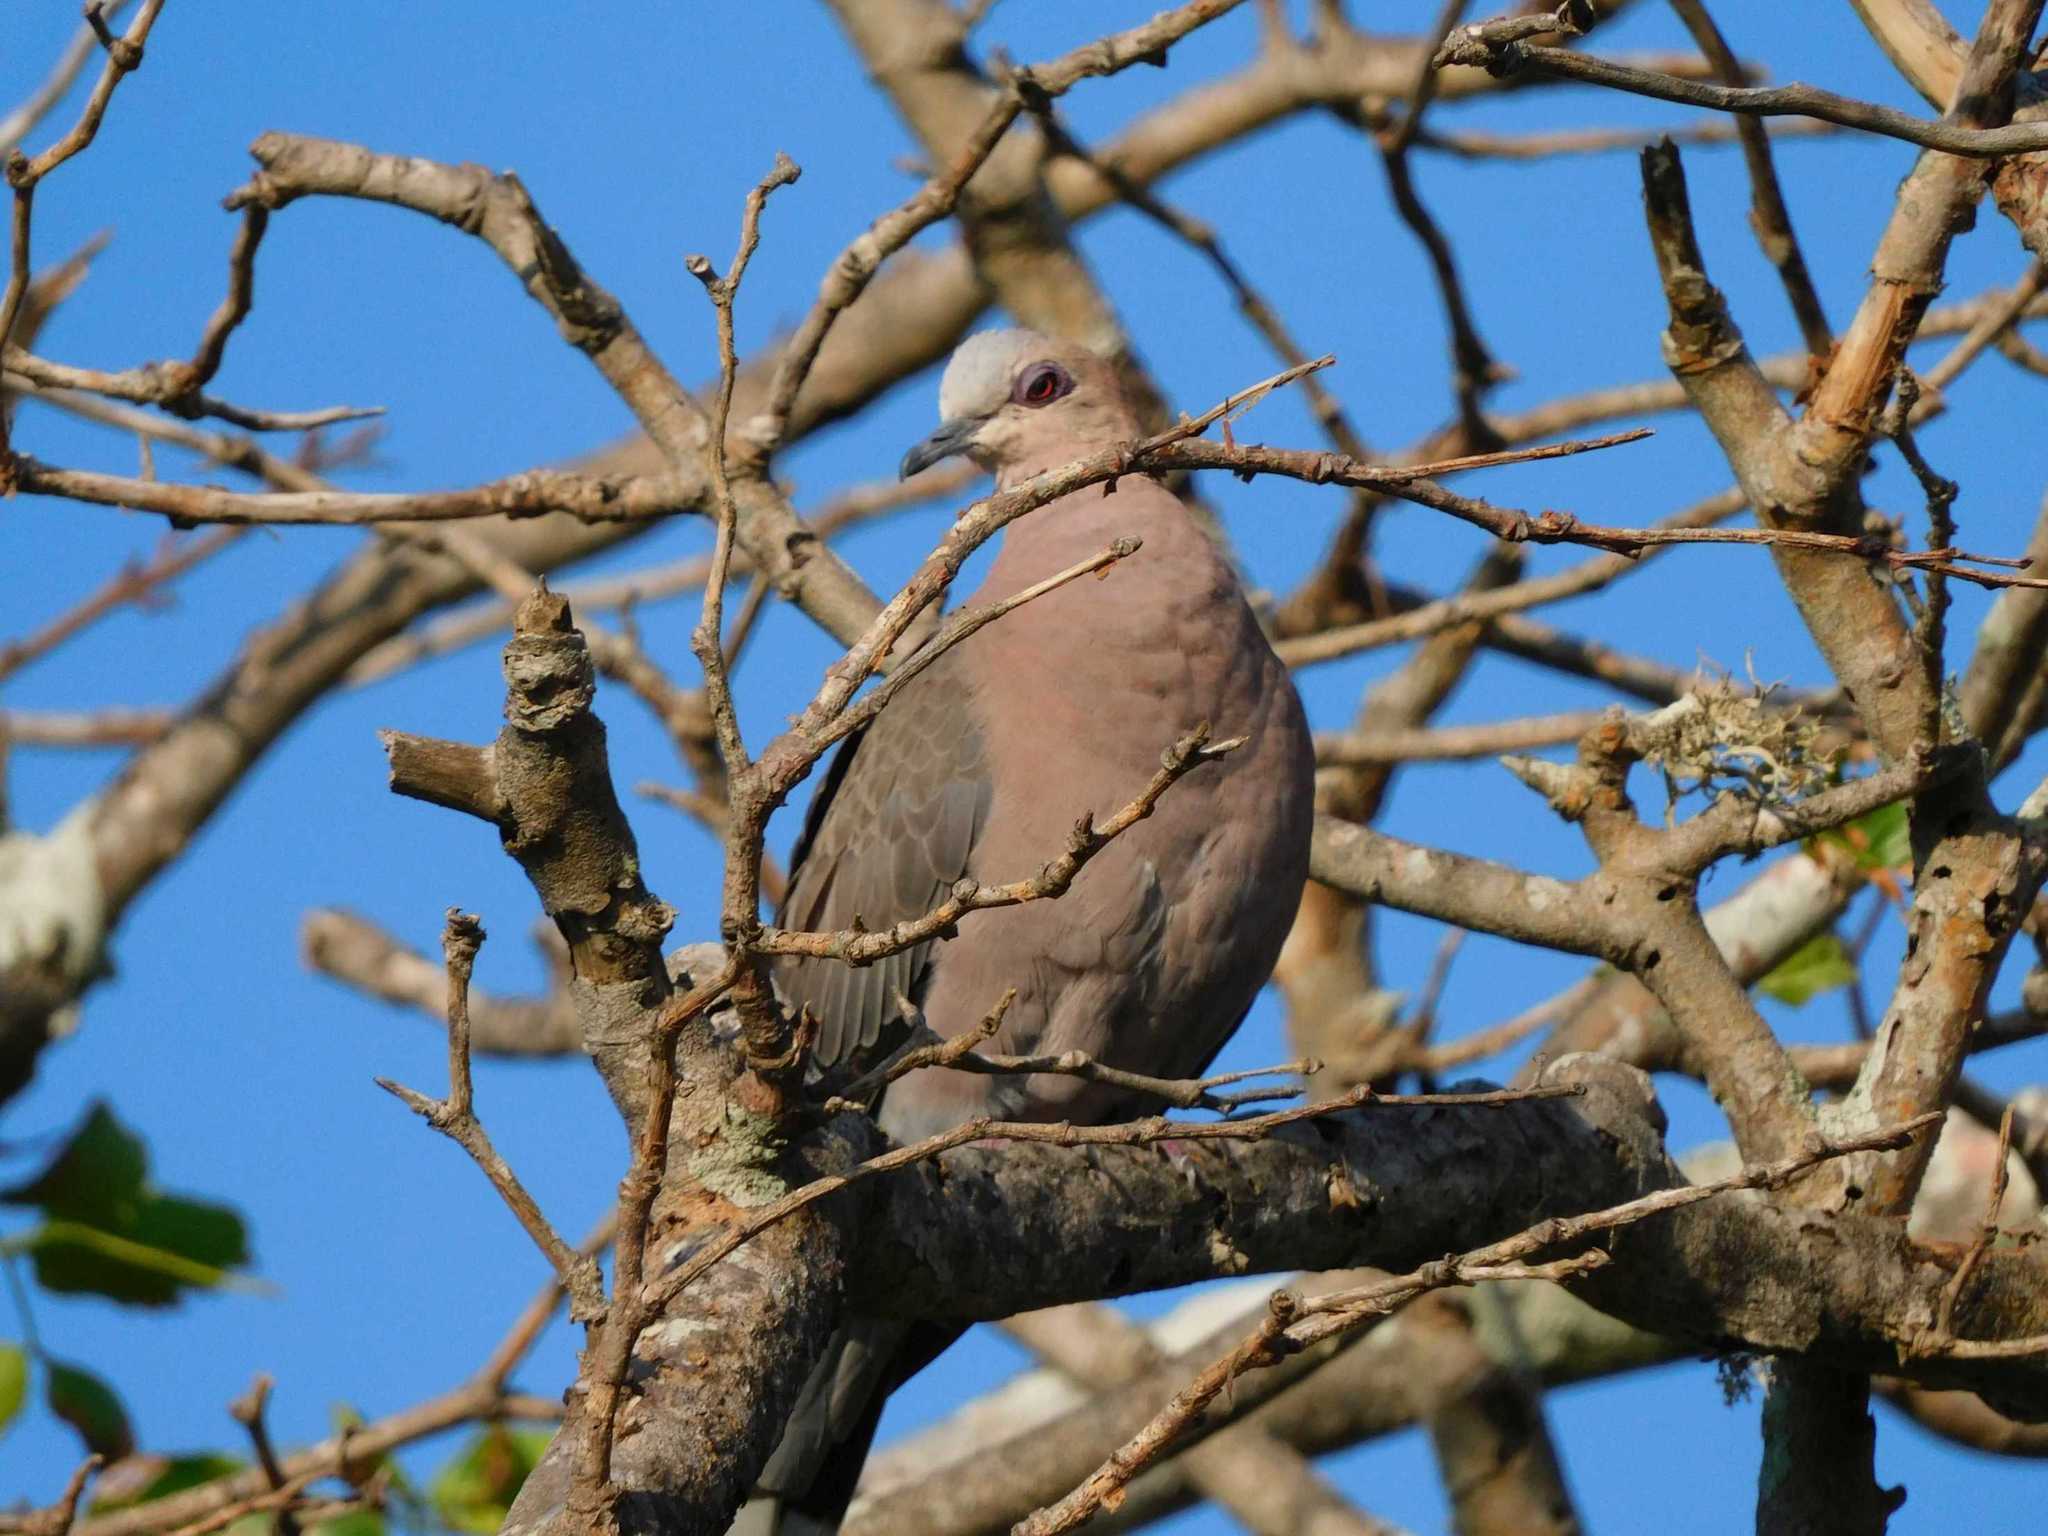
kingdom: Animalia
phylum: Chordata
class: Aves
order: Columbiformes
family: Columbidae
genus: Streptopelia
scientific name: Streptopelia semitorquata
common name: Red-eyed dove
